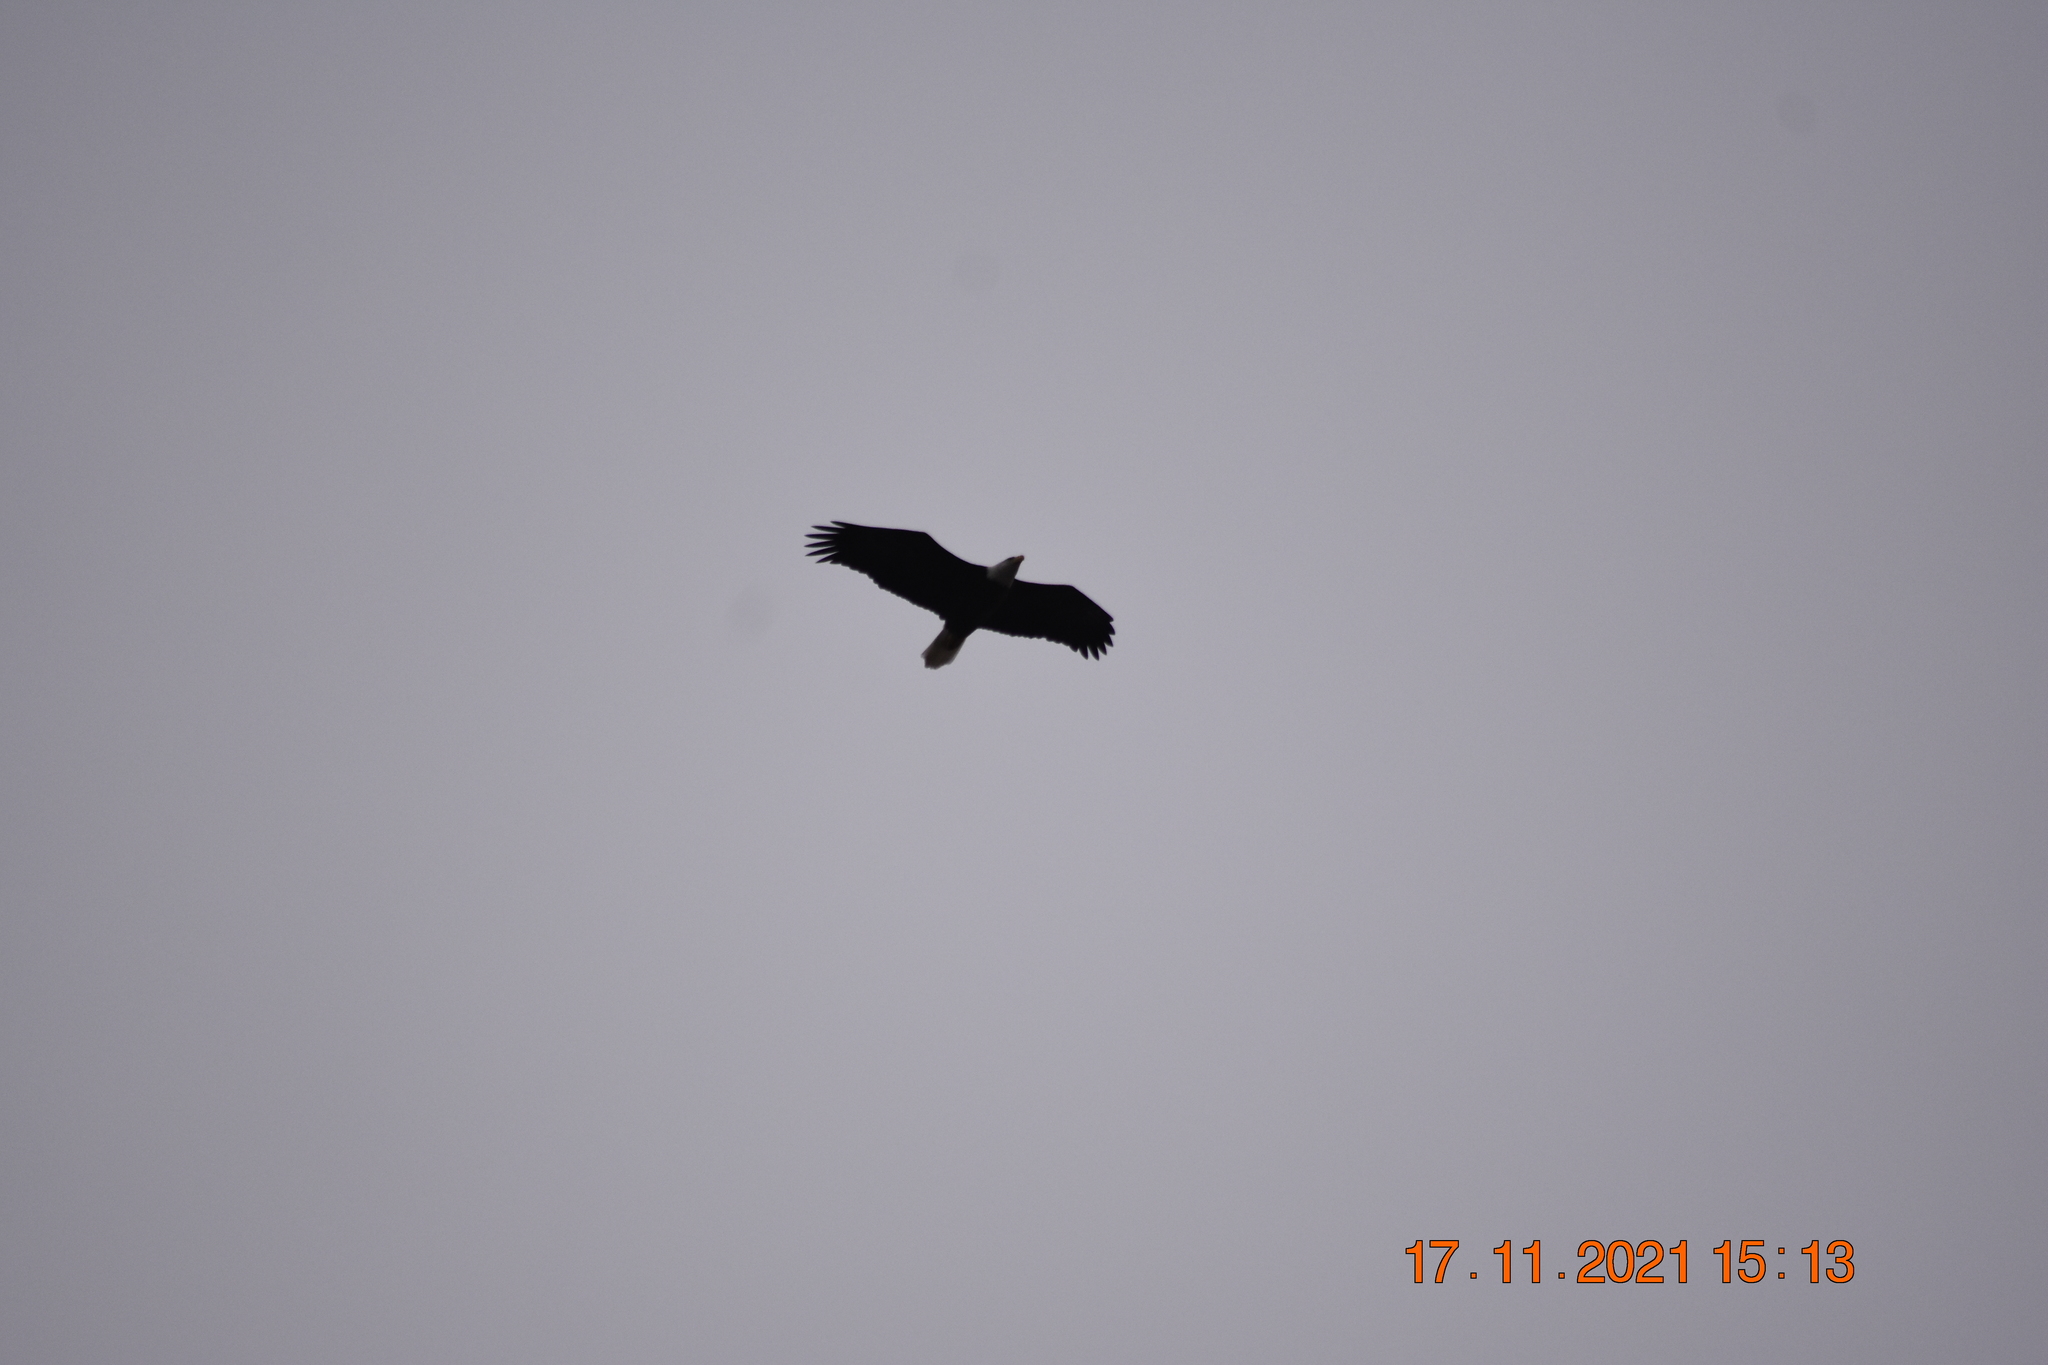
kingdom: Animalia
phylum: Chordata
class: Aves
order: Accipitriformes
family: Accipitridae
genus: Haliaeetus
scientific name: Haliaeetus leucocephalus
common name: Bald eagle
